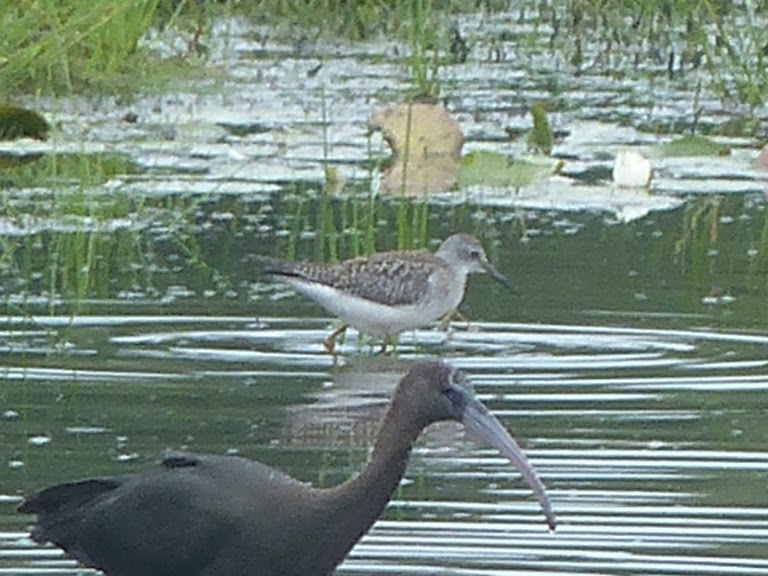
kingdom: Animalia
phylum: Chordata
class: Aves
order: Charadriiformes
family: Scolopacidae
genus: Tringa
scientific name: Tringa flavipes
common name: Lesser yellowlegs
